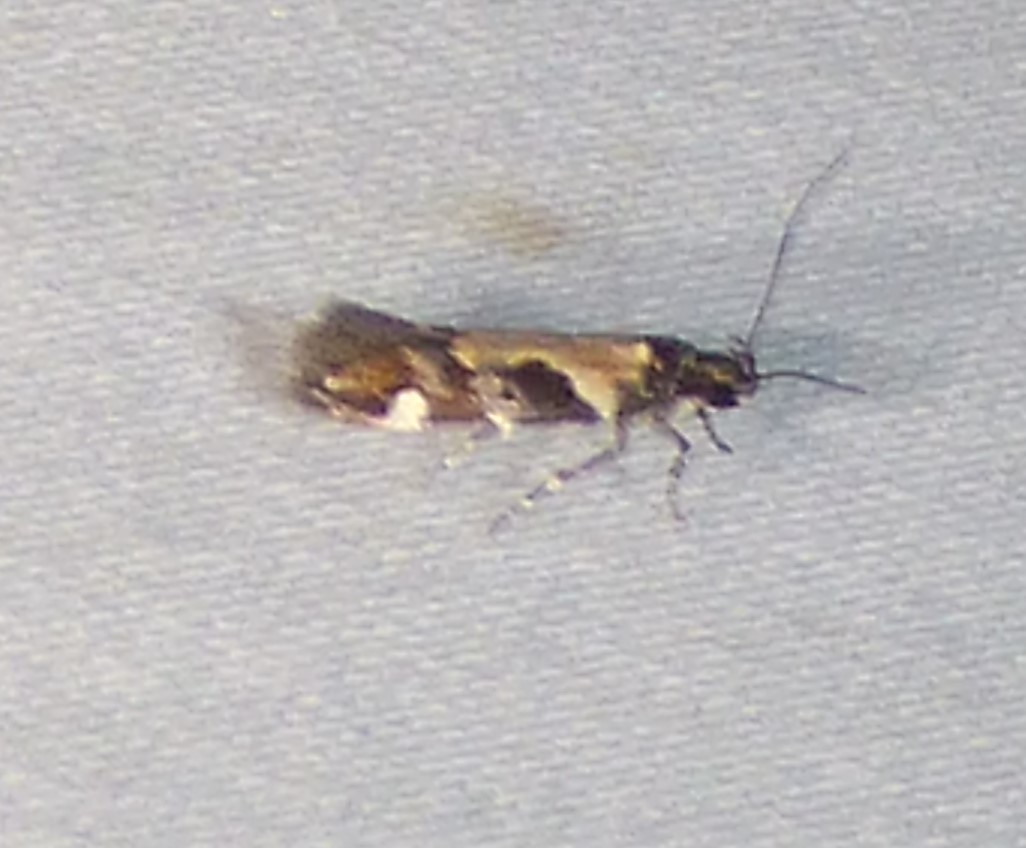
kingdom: Animalia
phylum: Arthropoda
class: Insecta
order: Lepidoptera
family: Gelechiidae
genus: Stegasta
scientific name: Stegasta bosqueella
